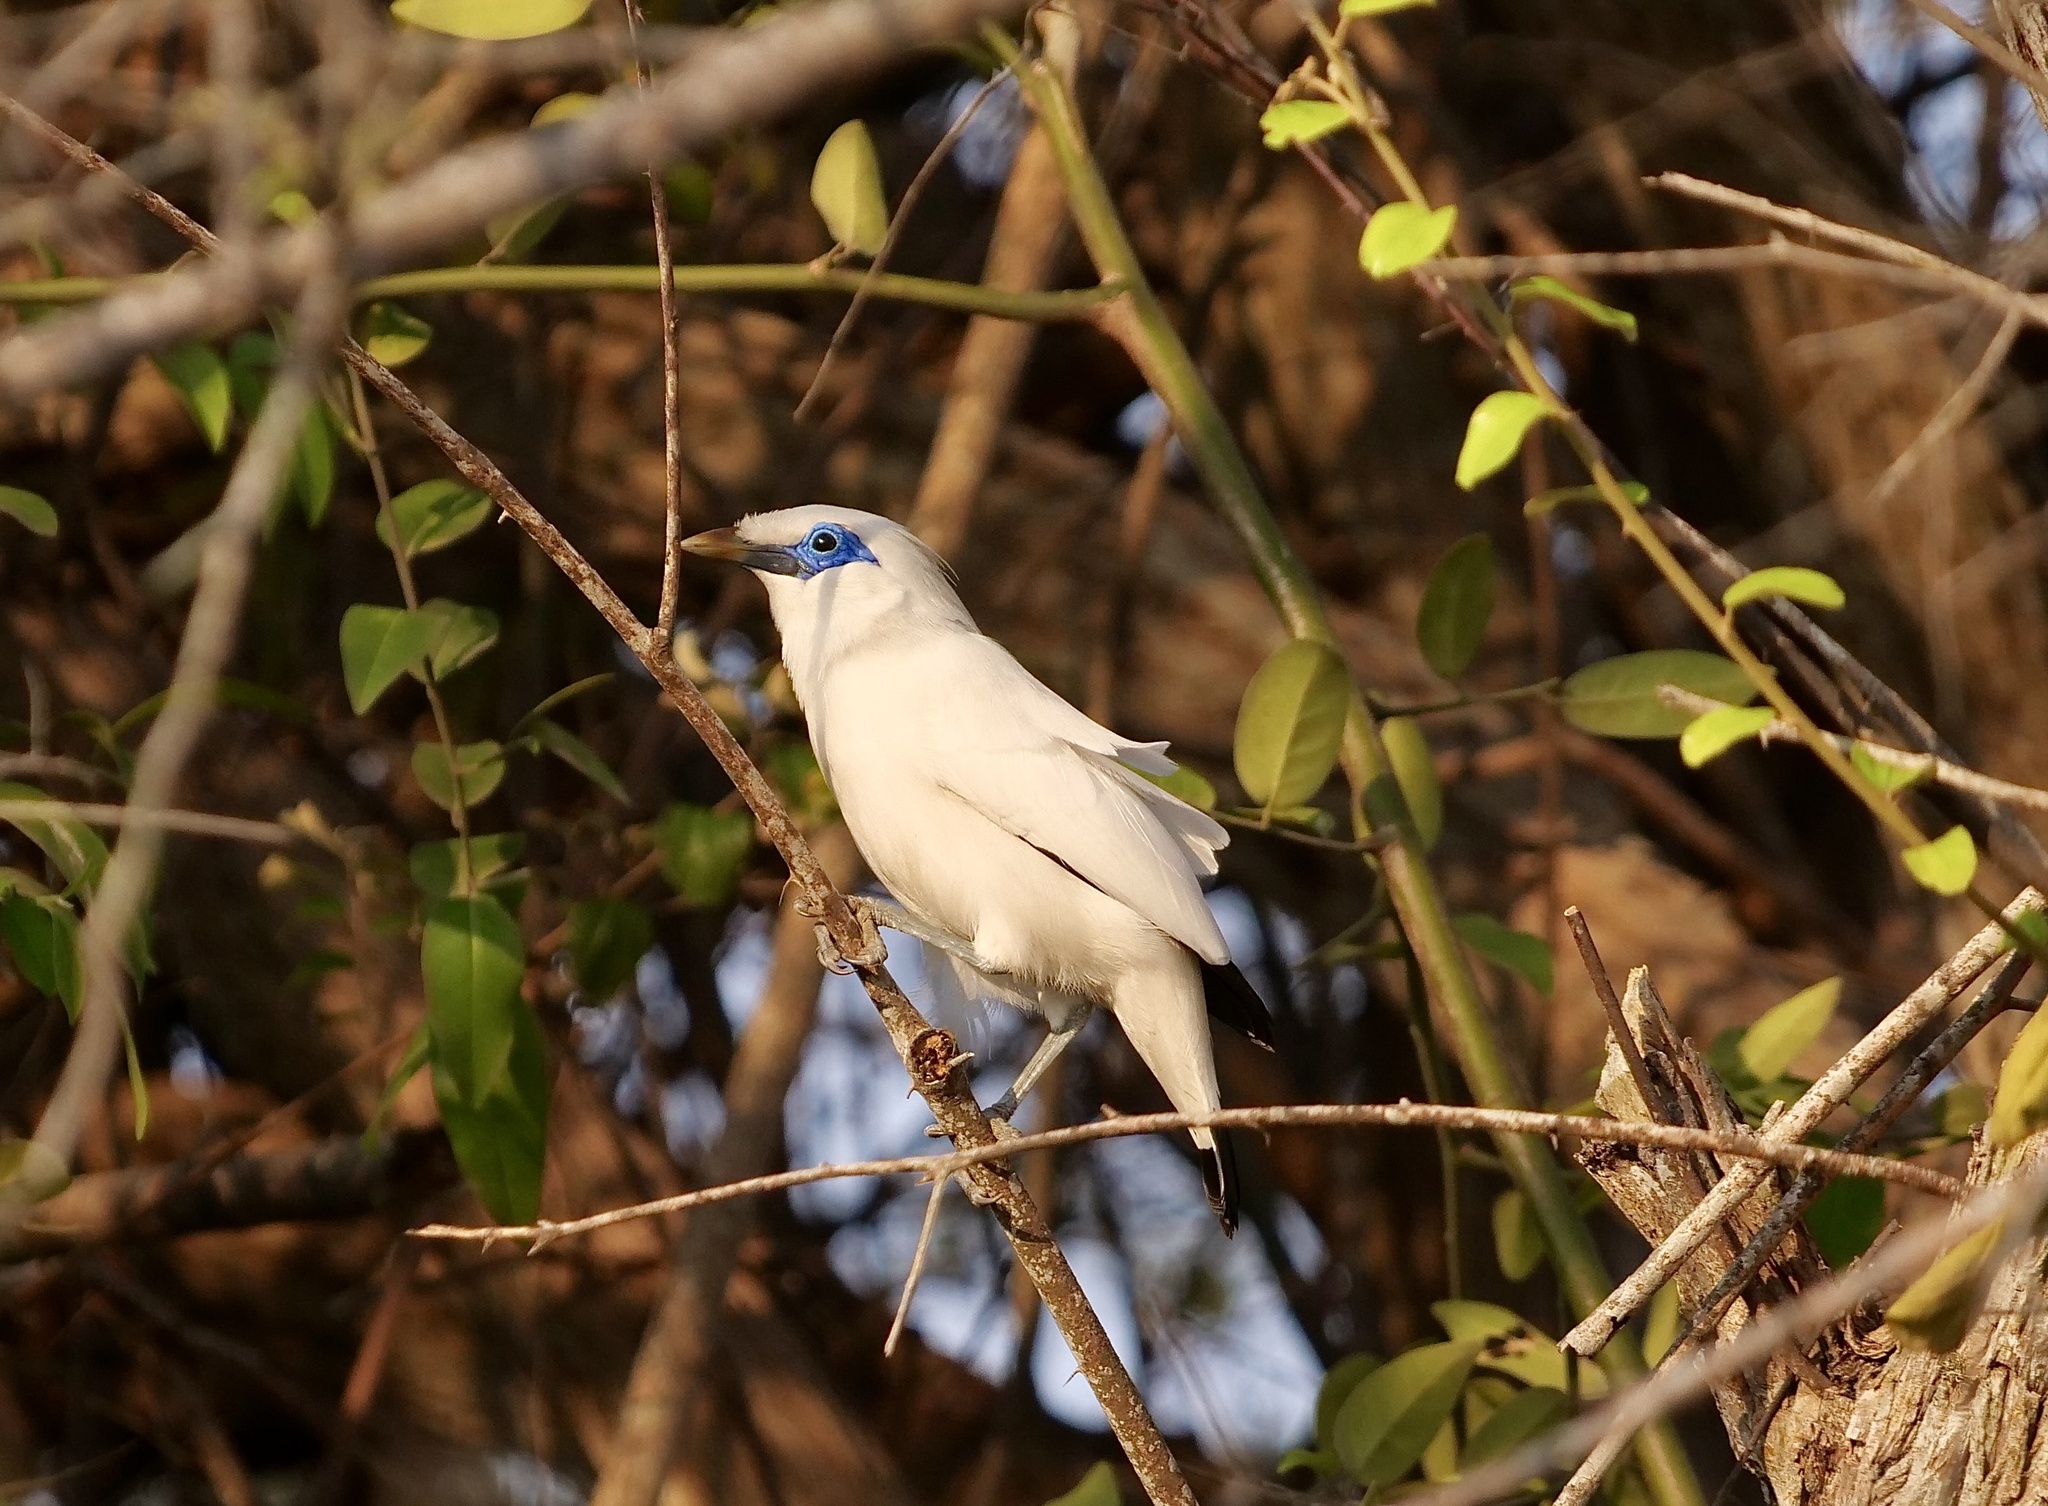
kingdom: Animalia
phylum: Chordata
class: Aves
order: Passeriformes
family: Sturnidae
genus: Leucopsar
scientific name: Leucopsar rothschildi
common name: Bali myna
